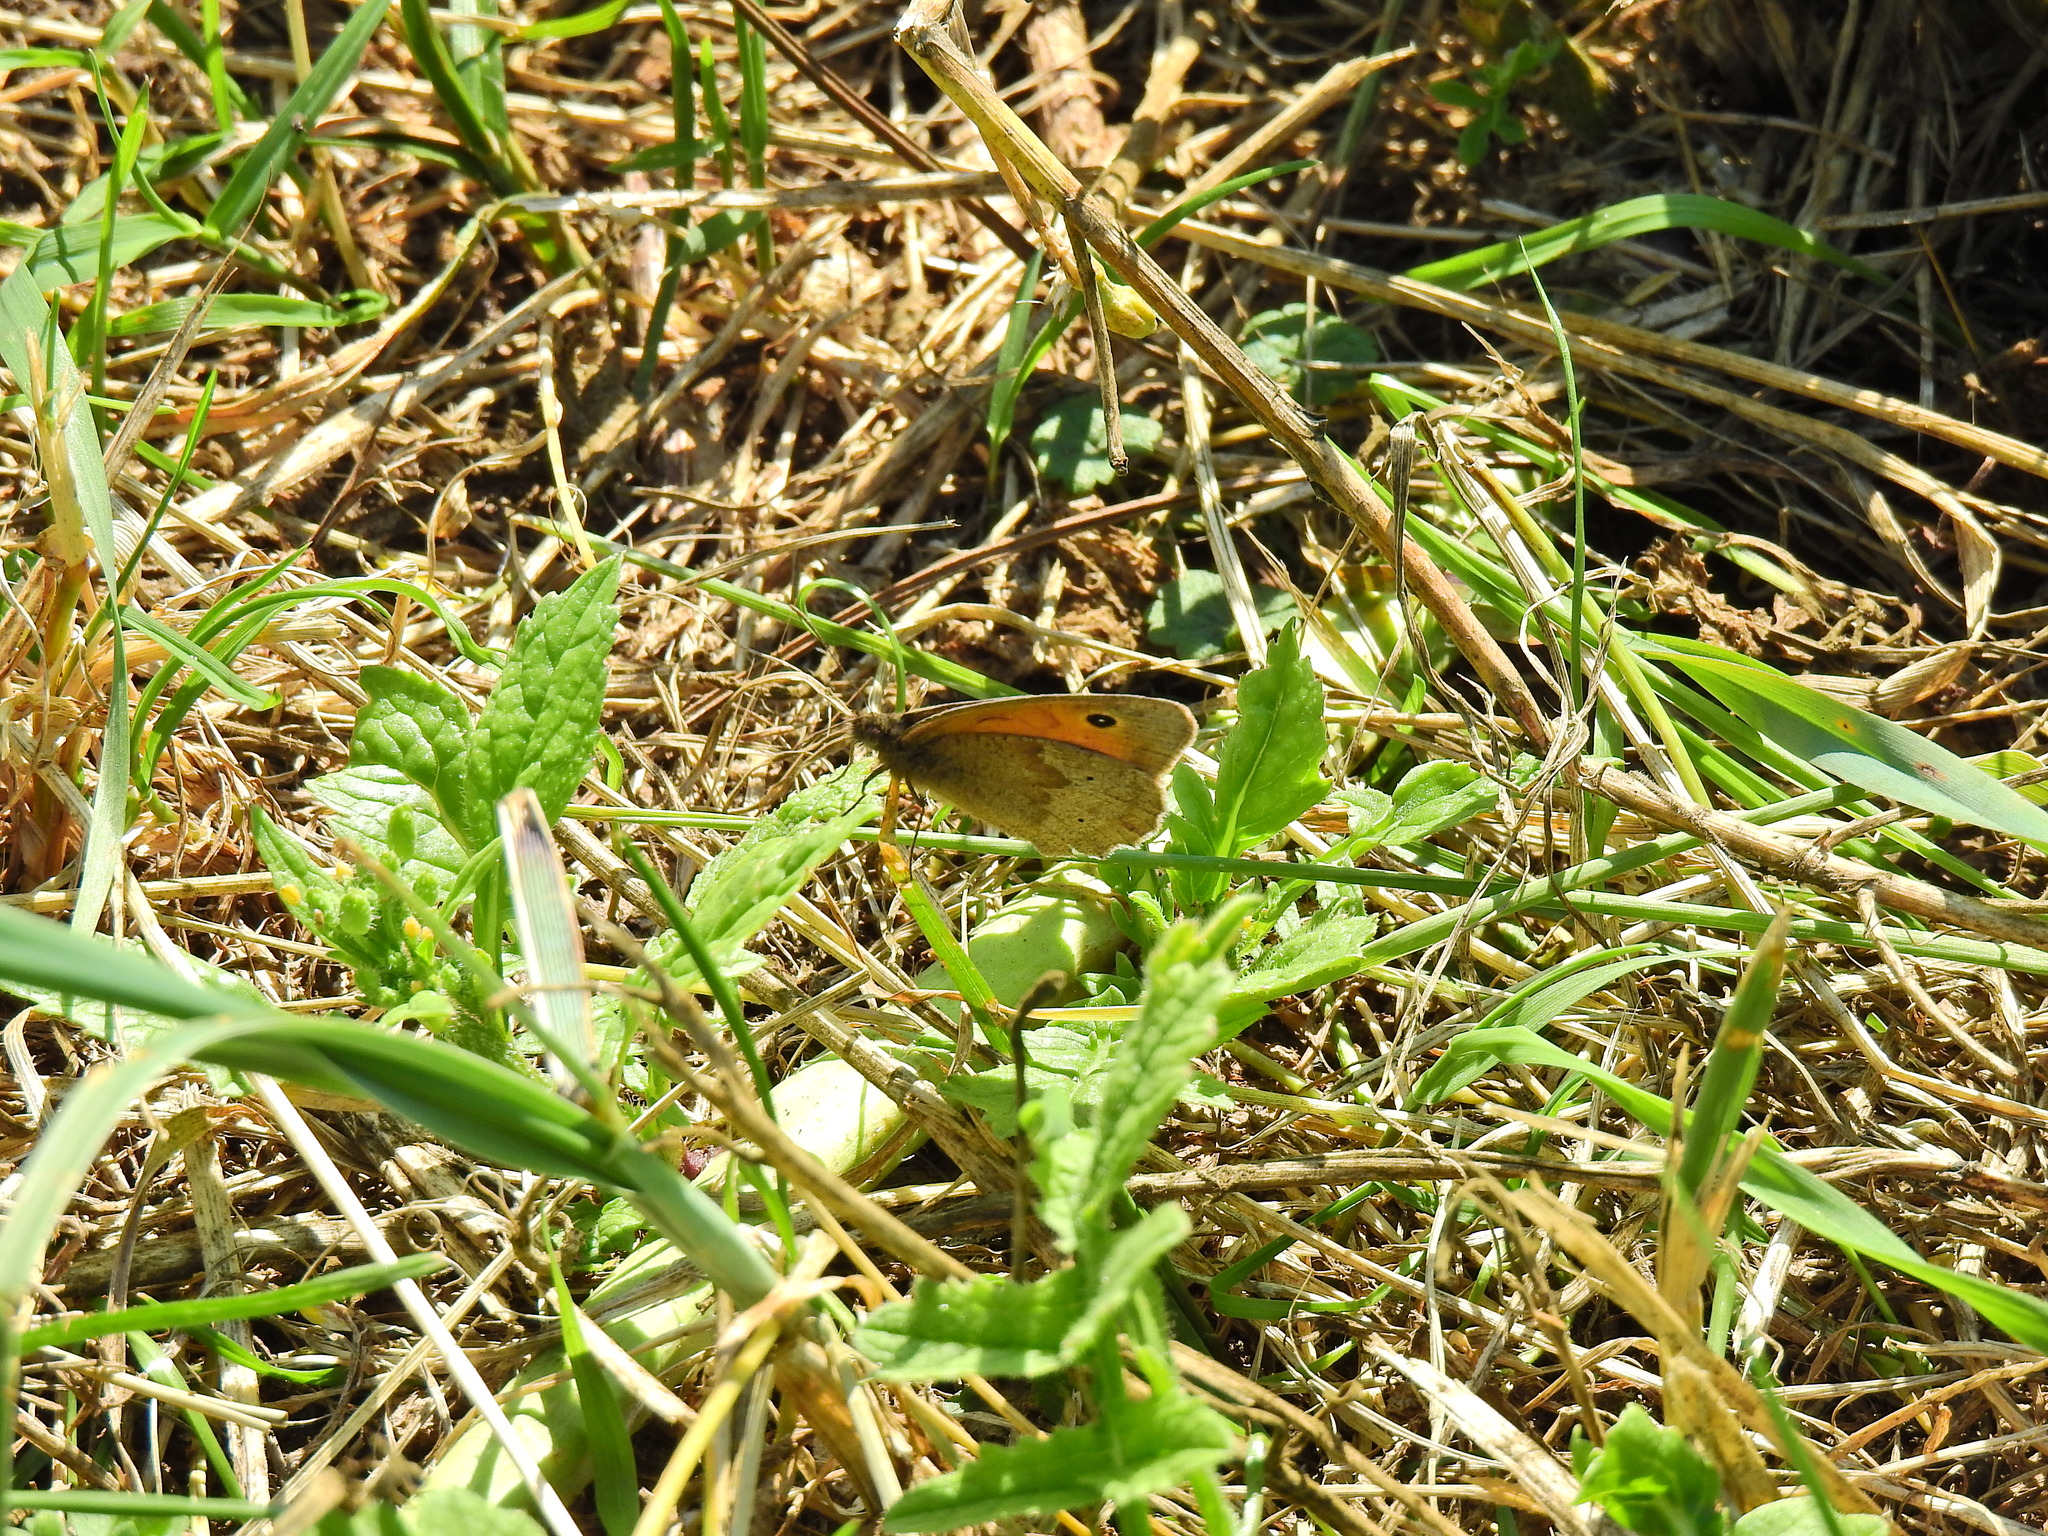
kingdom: Animalia
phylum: Arthropoda
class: Insecta
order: Lepidoptera
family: Nymphalidae
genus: Maniola
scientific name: Maniola jurtina
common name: Meadow brown
